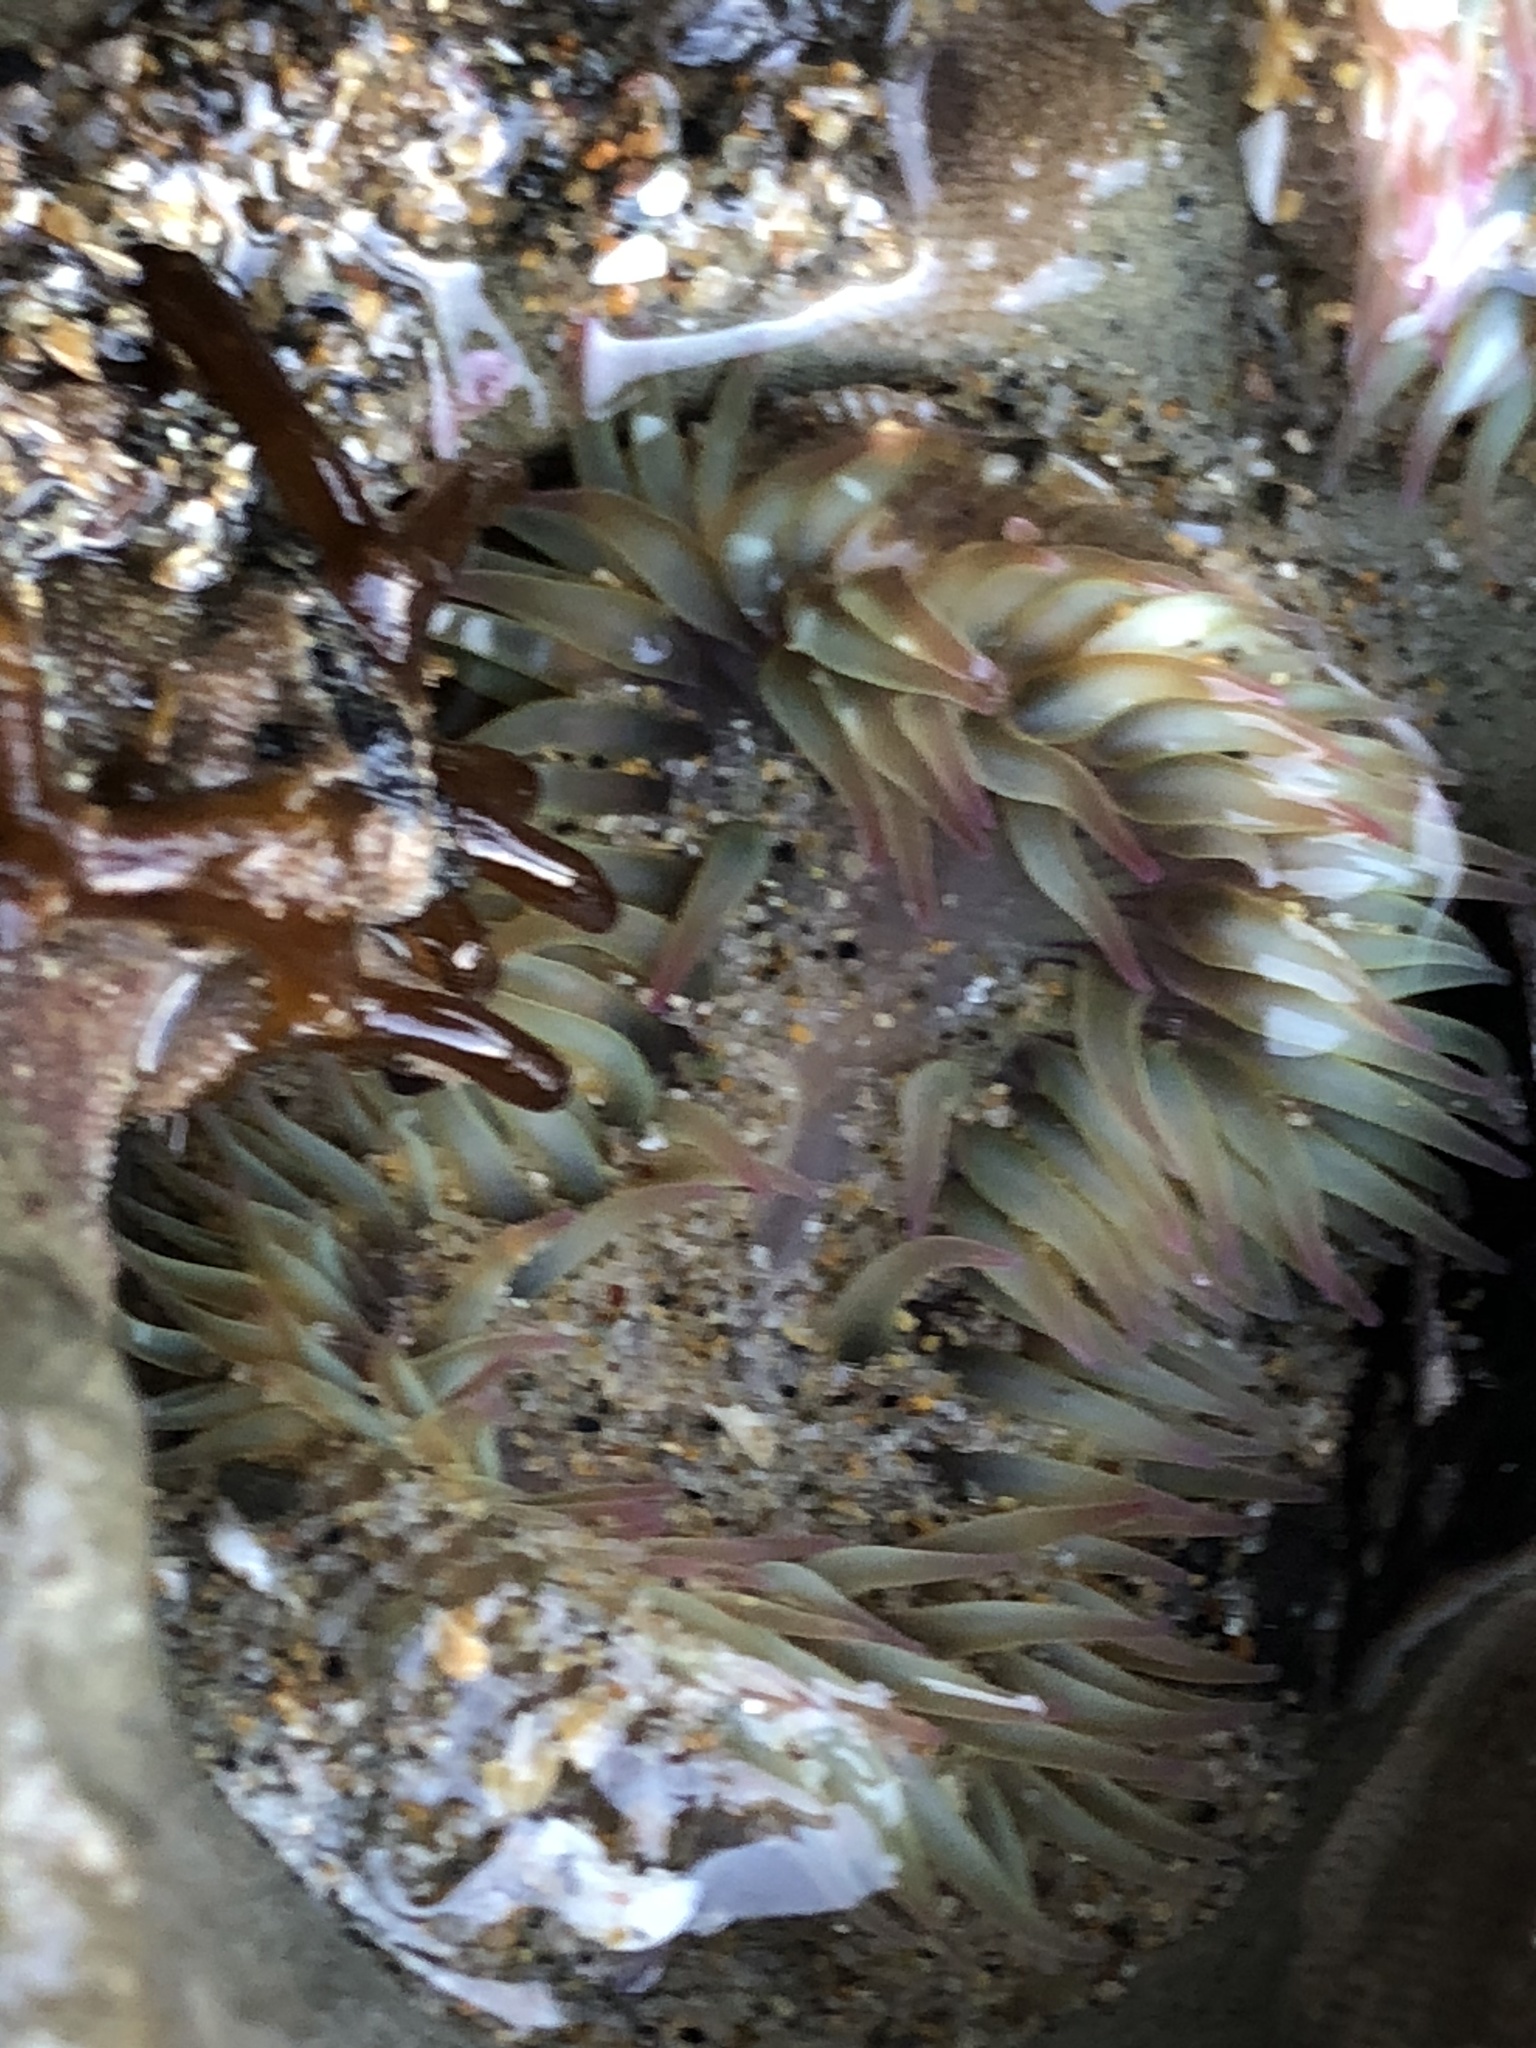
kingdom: Animalia
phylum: Cnidaria
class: Anthozoa
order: Actiniaria
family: Actiniidae
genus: Anthopleura
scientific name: Anthopleura elegantissima
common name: Clonal anemone
